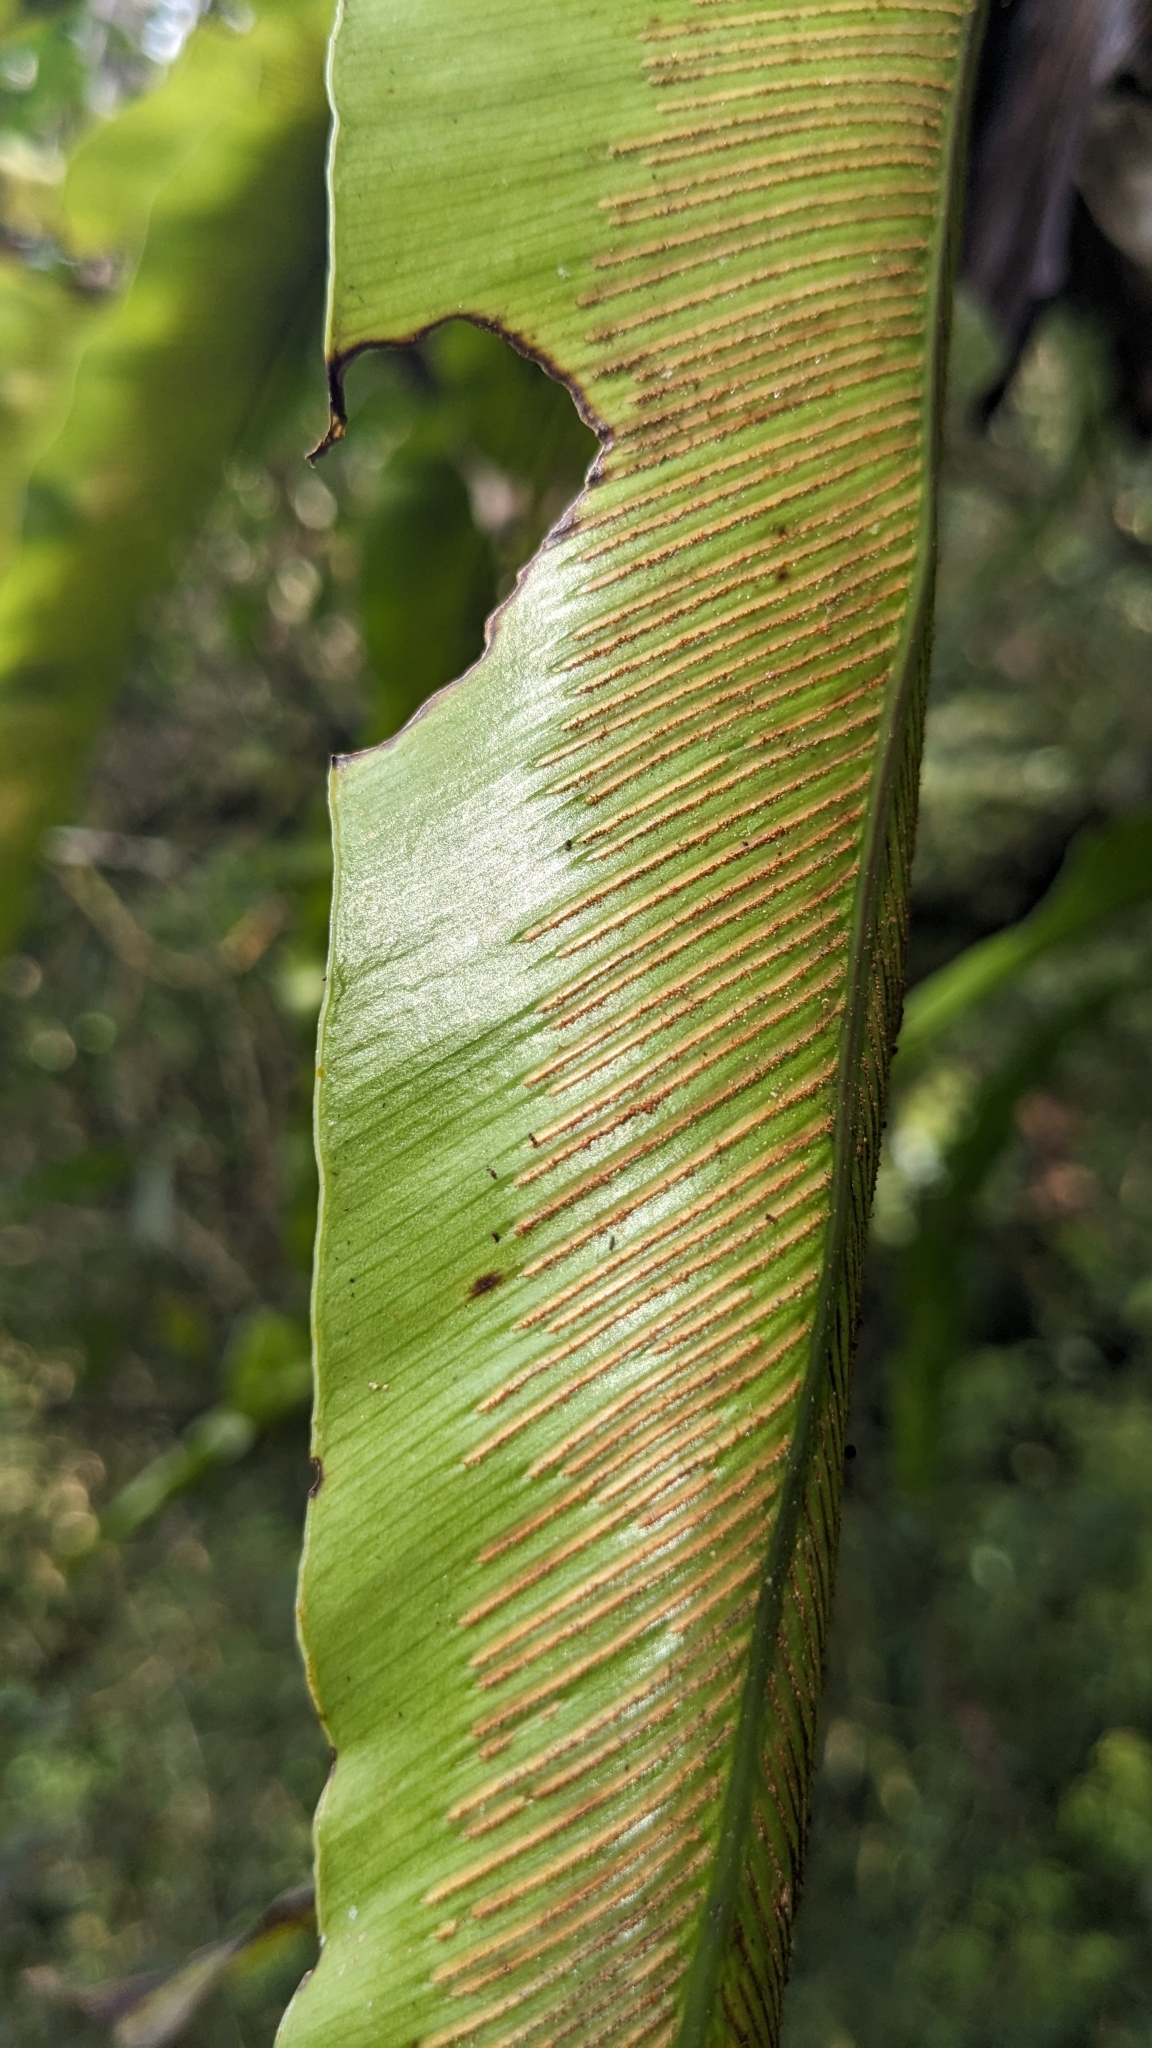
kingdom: Plantae
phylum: Tracheophyta
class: Polypodiopsida
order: Polypodiales
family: Aspleniaceae
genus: Asplenium
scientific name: Asplenium antiquum
